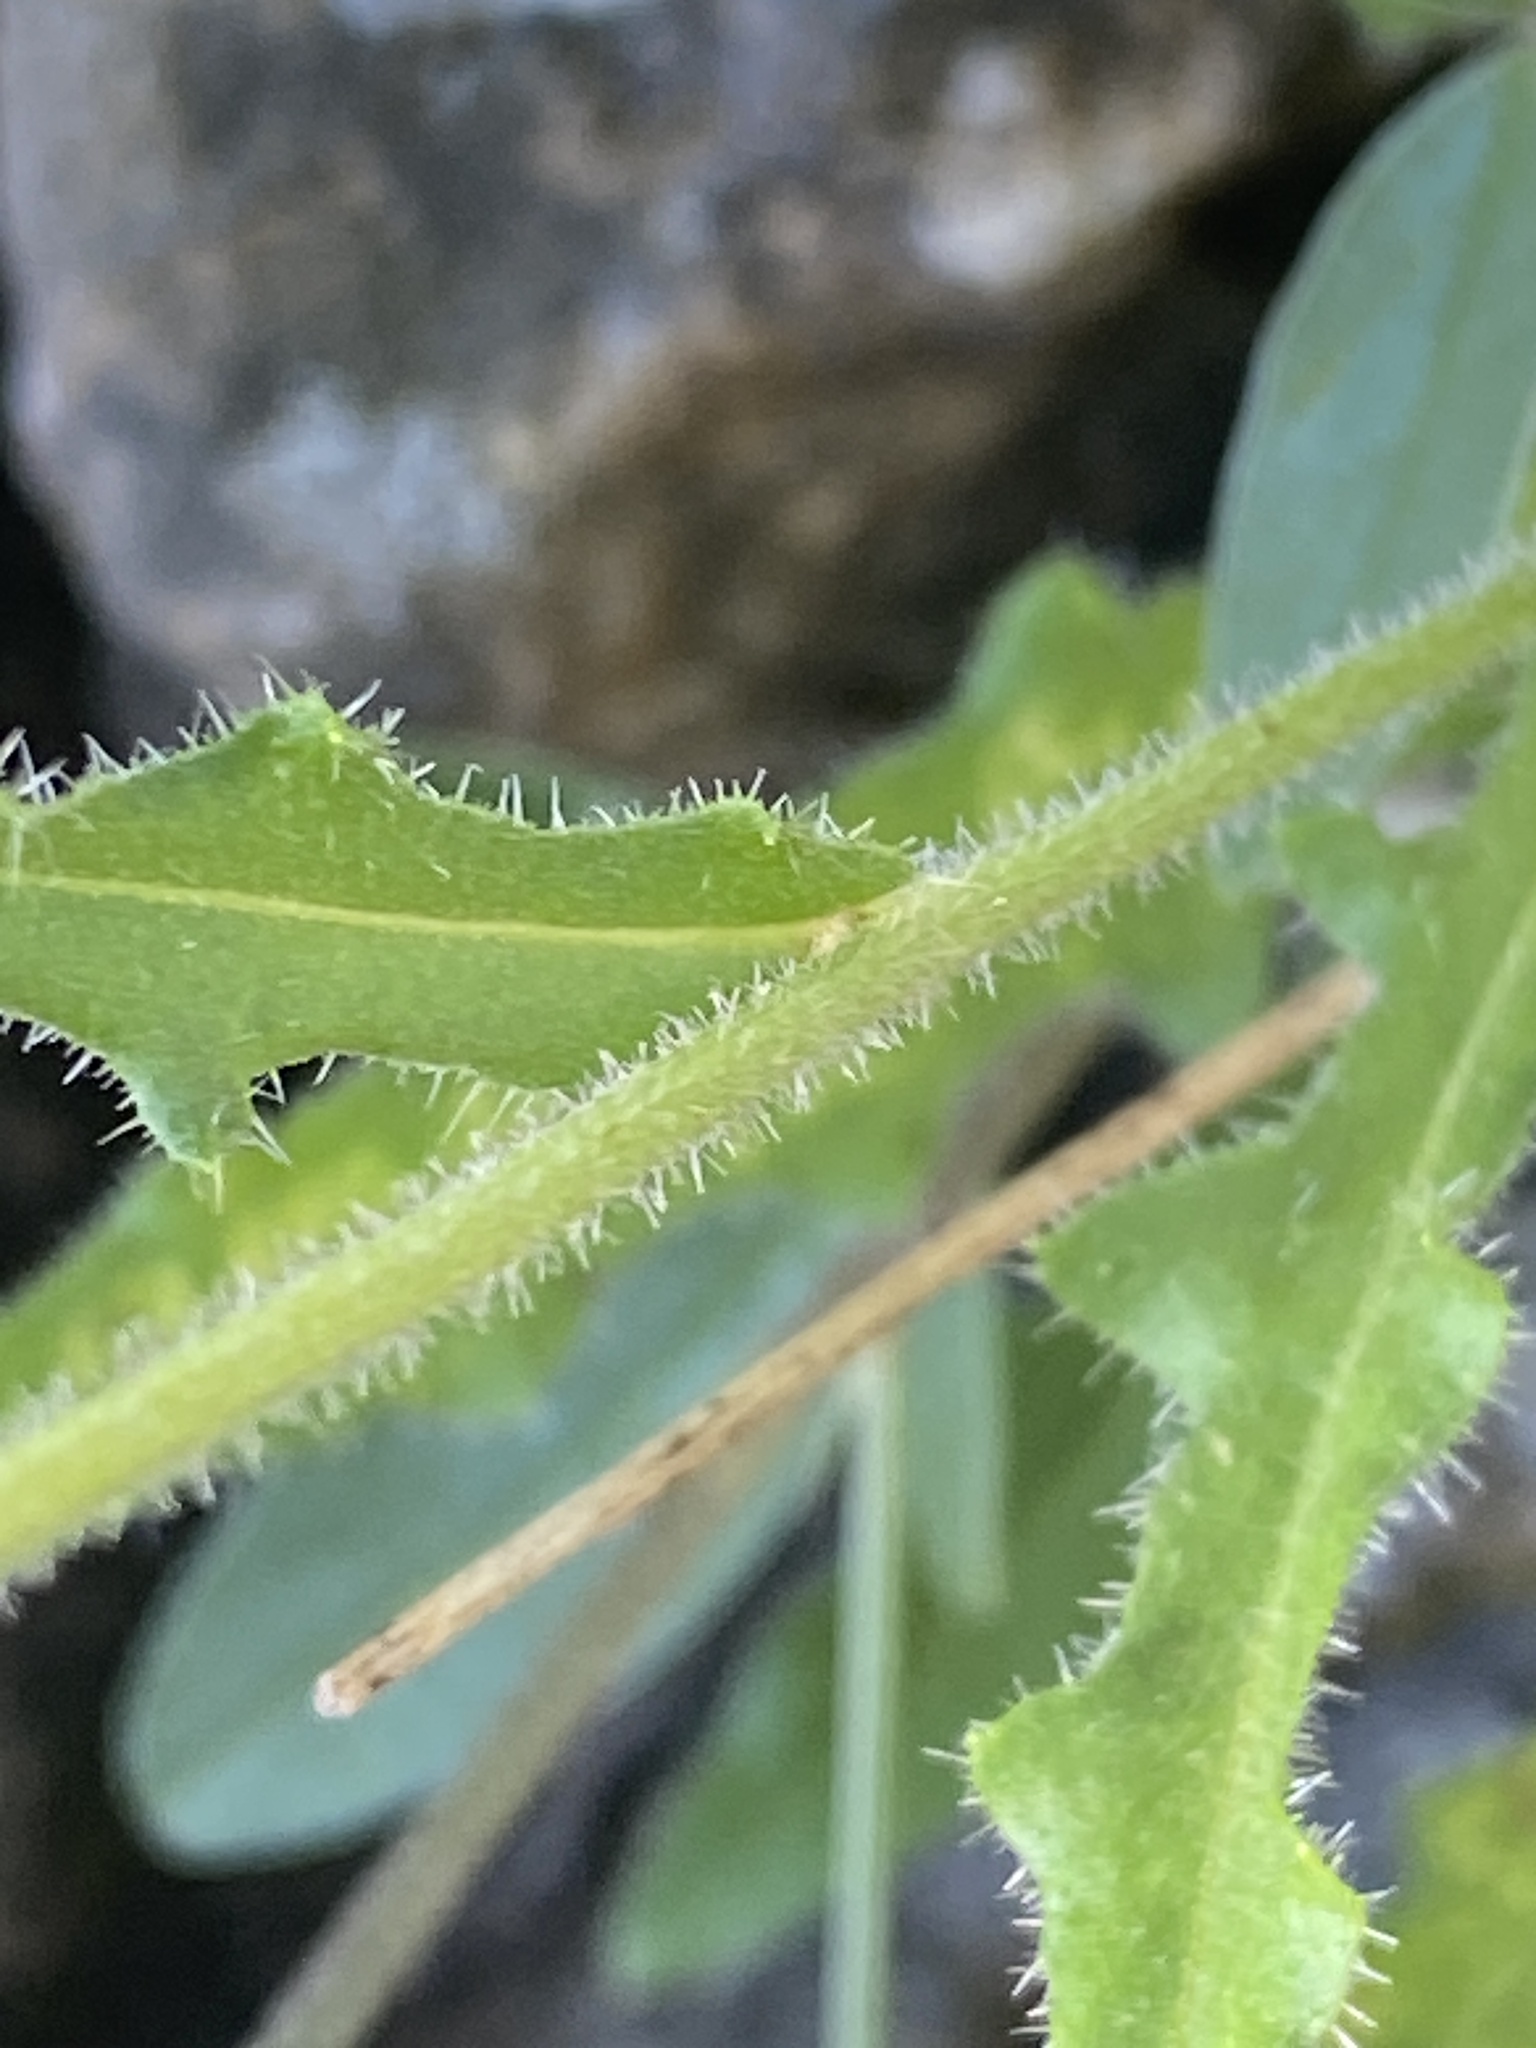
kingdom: Plantae
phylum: Tracheophyta
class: Magnoliopsida
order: Asterales
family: Asteraceae
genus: Picris
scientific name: Picris hieracioides
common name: Hawkweed oxtongue
